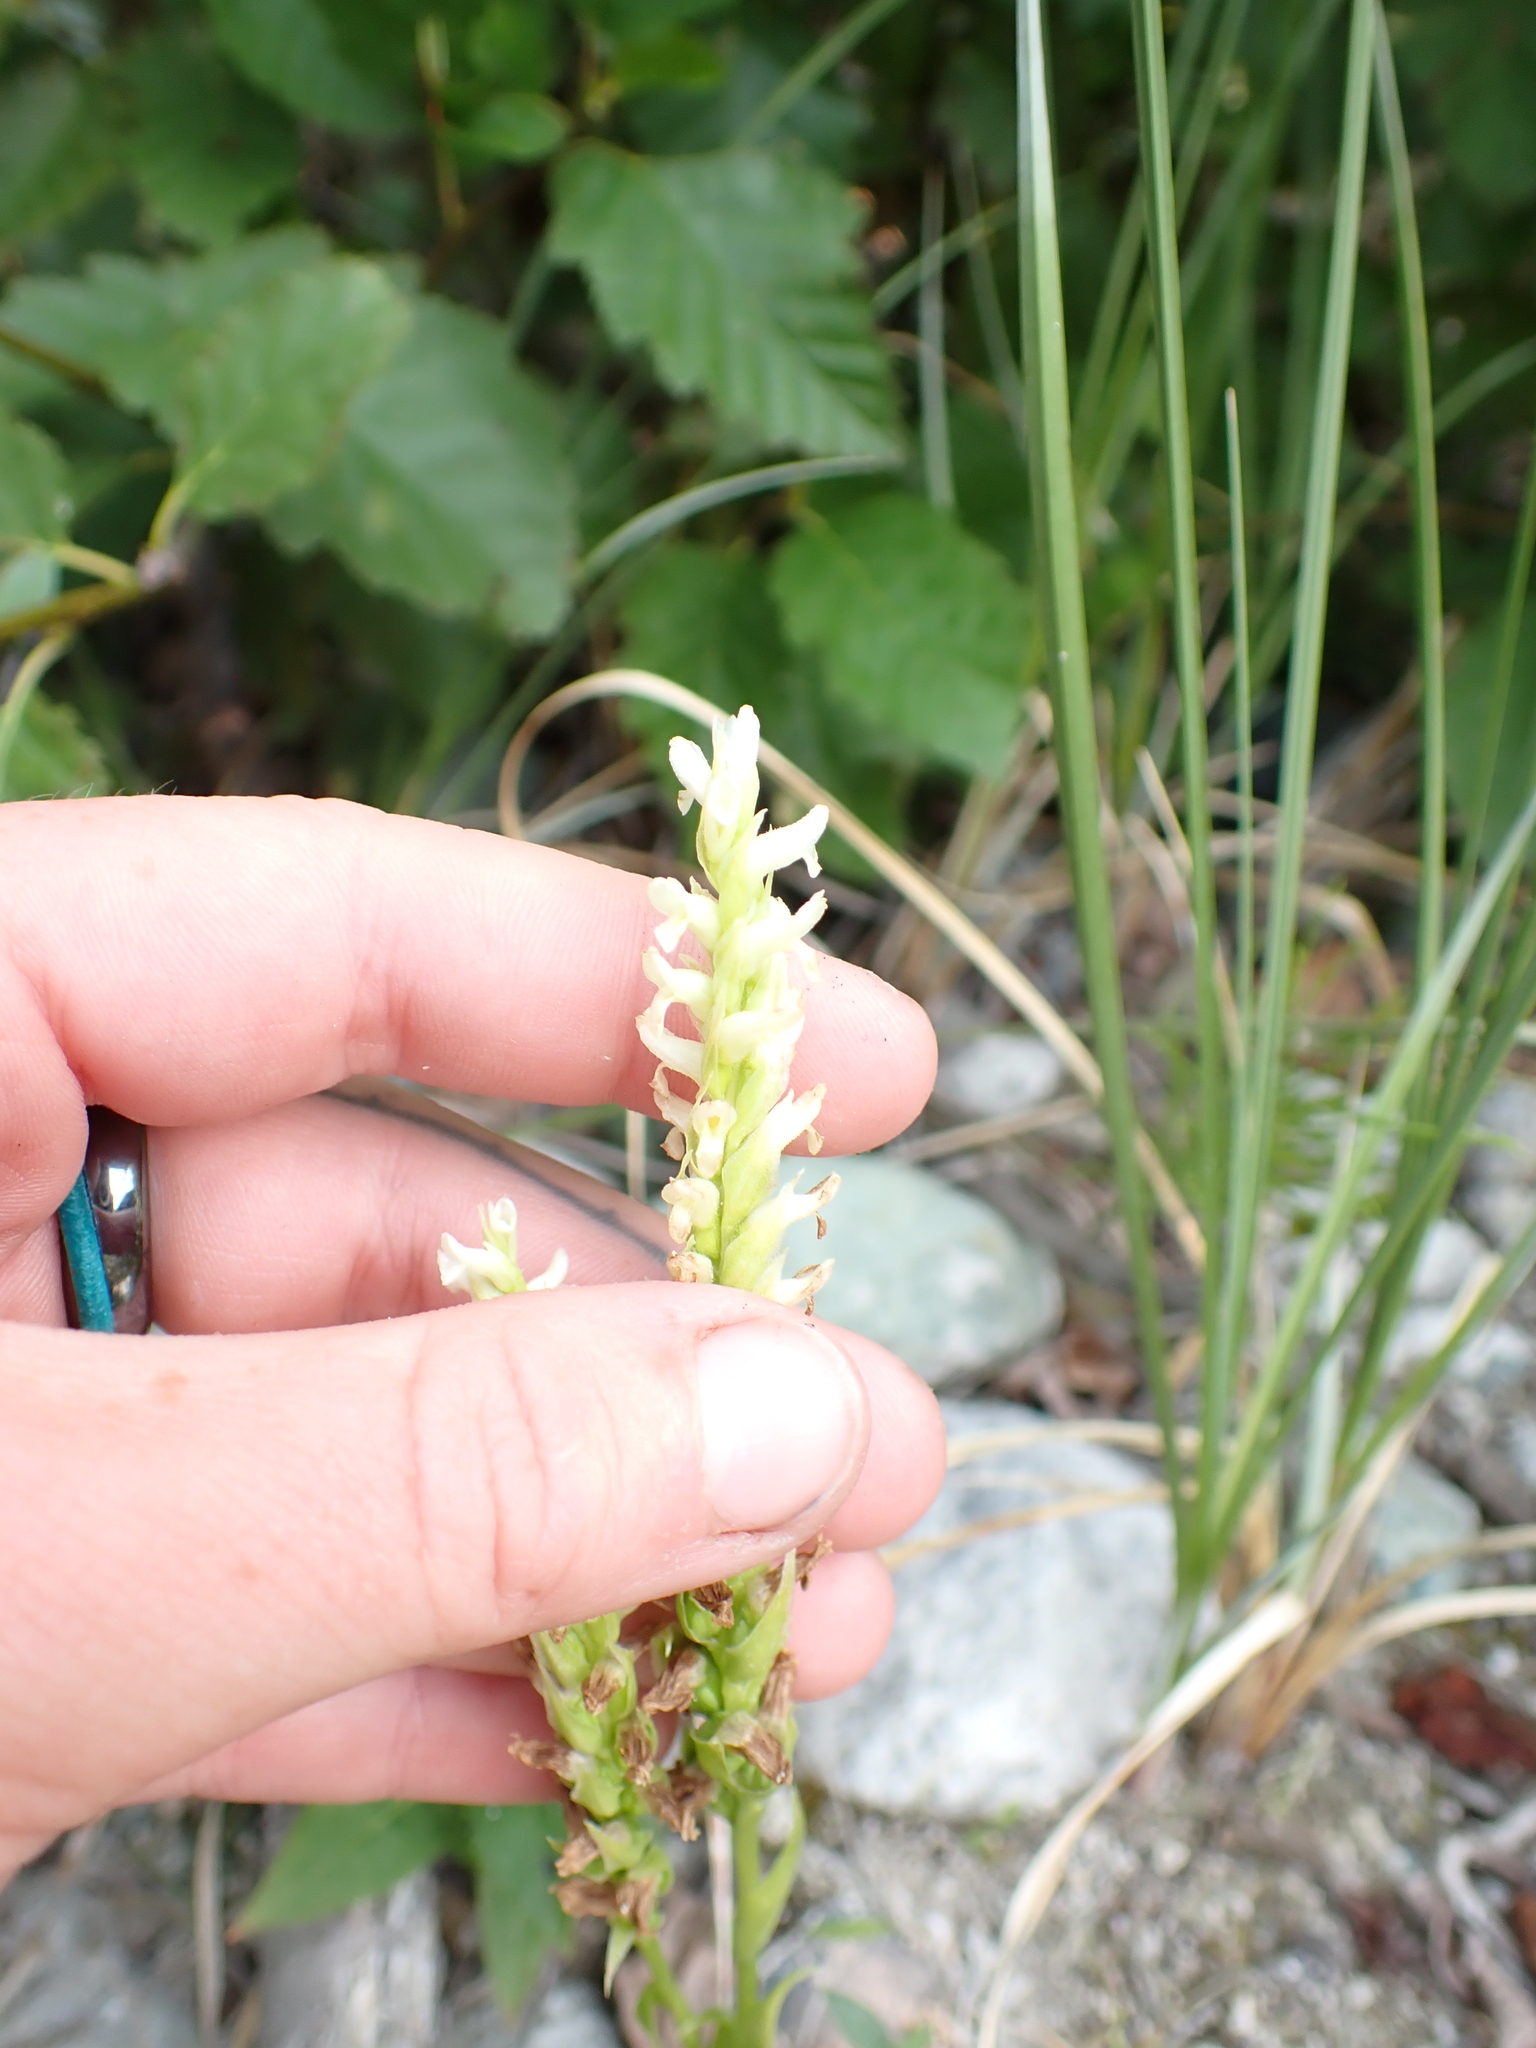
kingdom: Plantae
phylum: Tracheophyta
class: Liliopsida
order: Asparagales
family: Orchidaceae
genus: Spiranthes
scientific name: Spiranthes romanzoffiana
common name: Irish lady's-tresses
